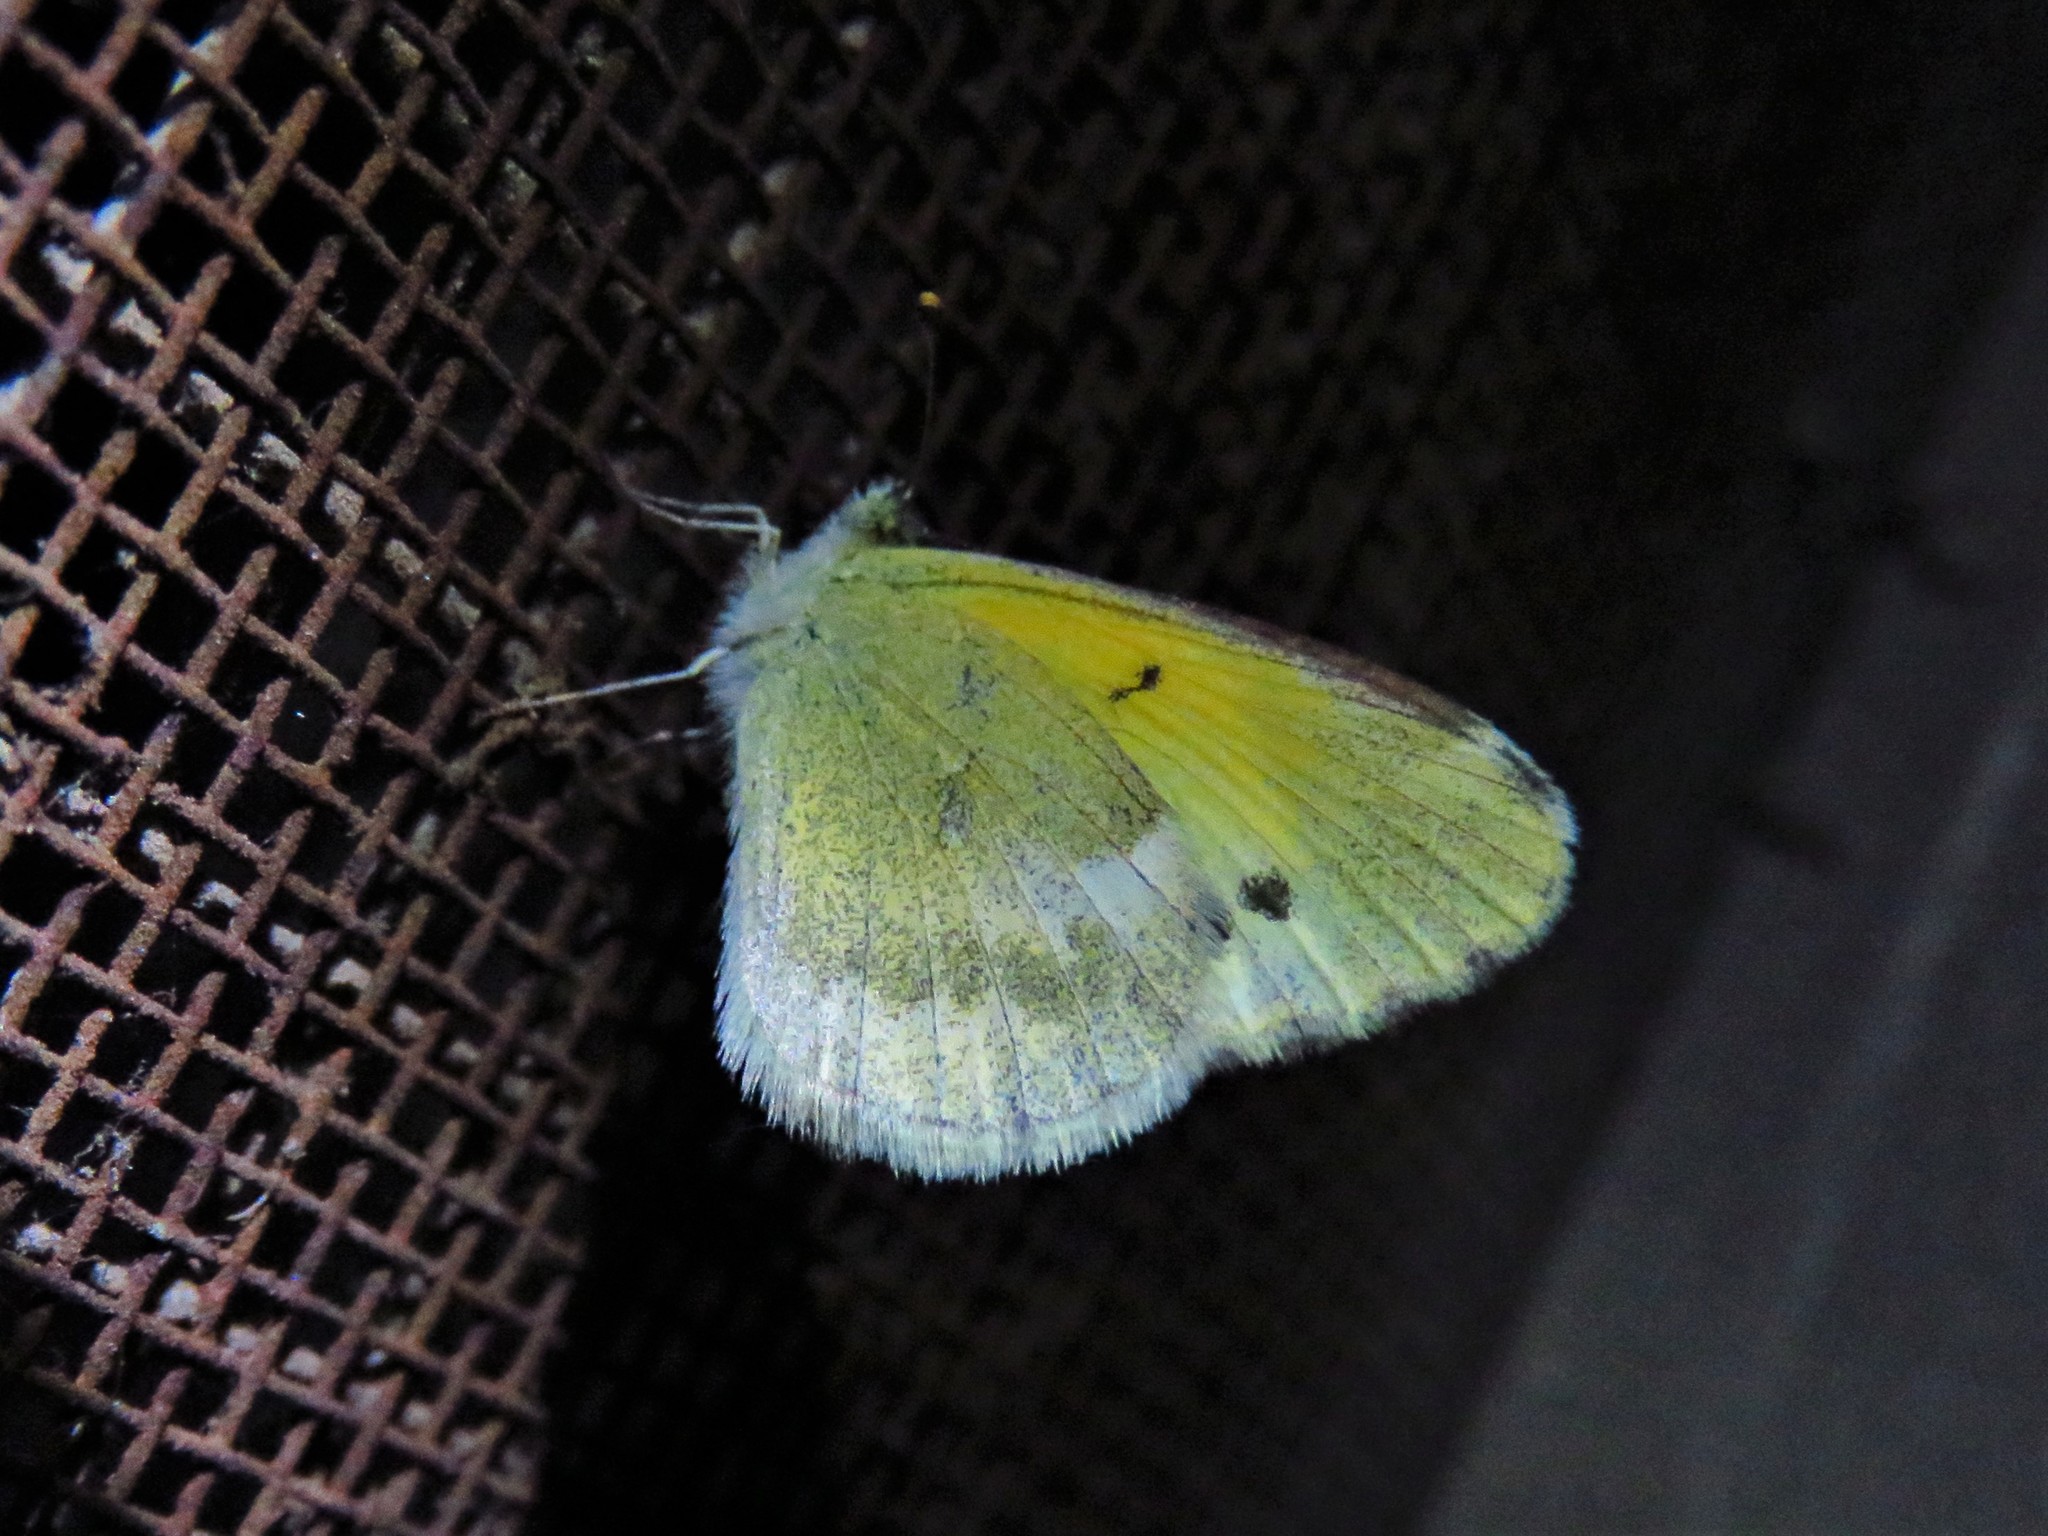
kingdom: Animalia
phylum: Arthropoda
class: Insecta
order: Lepidoptera
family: Pieridae
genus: Nathalis
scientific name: Nathalis iole
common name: Dainty sulphur
